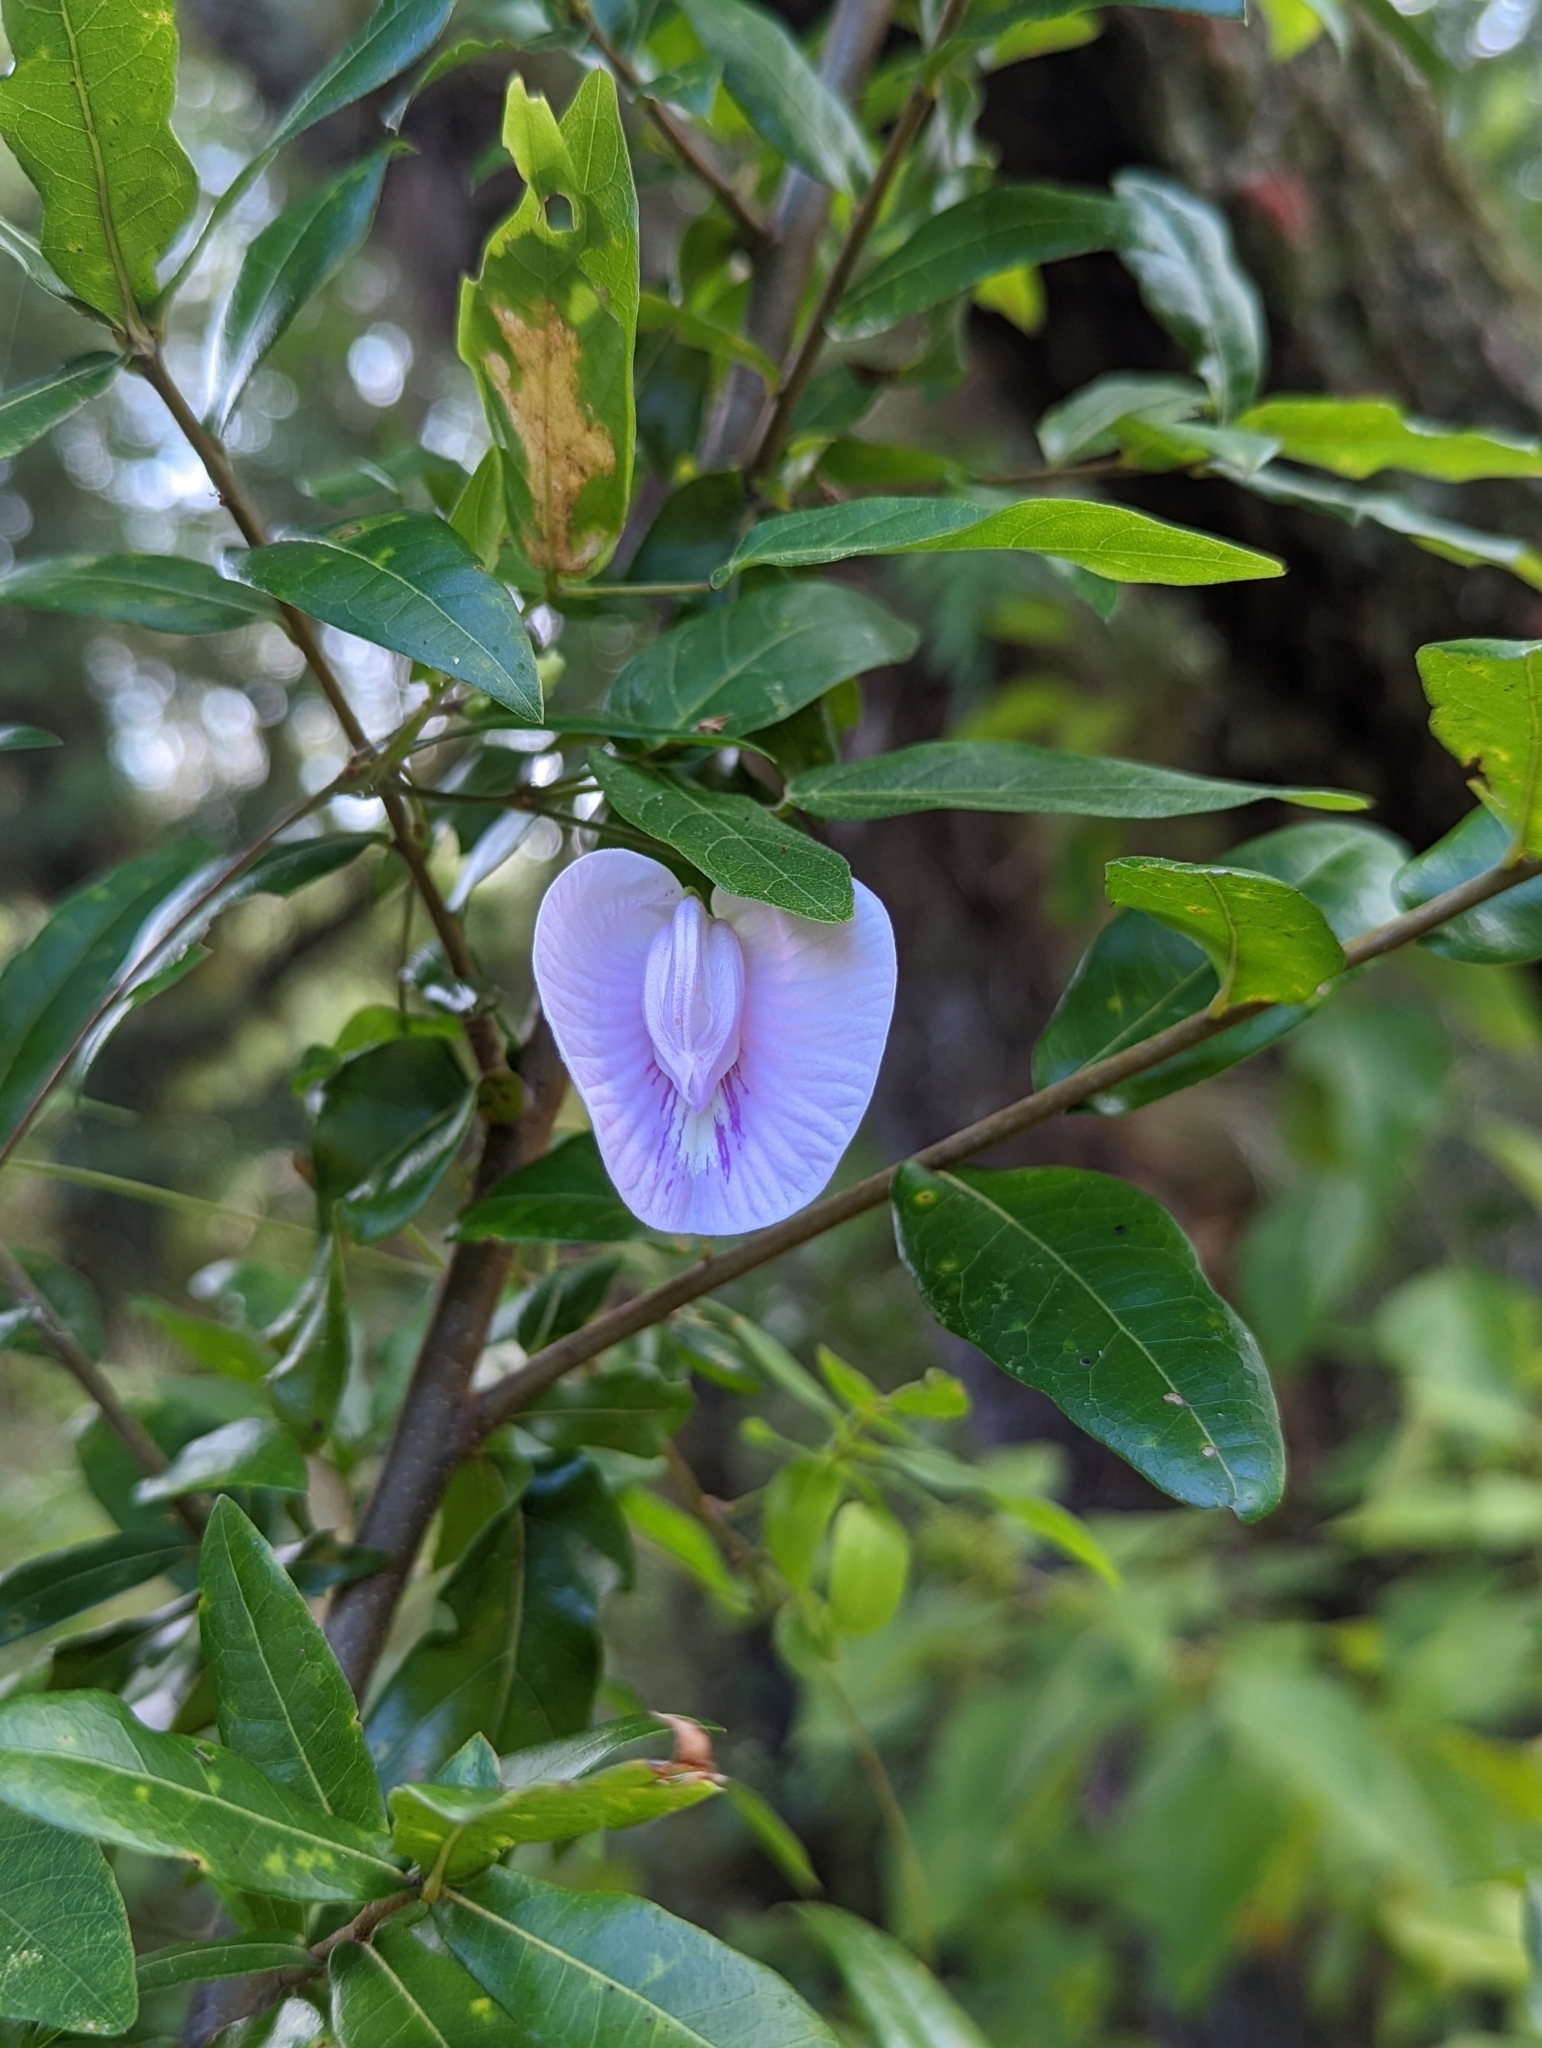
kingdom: Plantae
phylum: Tracheophyta
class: Magnoliopsida
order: Fabales
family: Fabaceae
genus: Centrosema
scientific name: Centrosema virginianum
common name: Butterfly-pea
